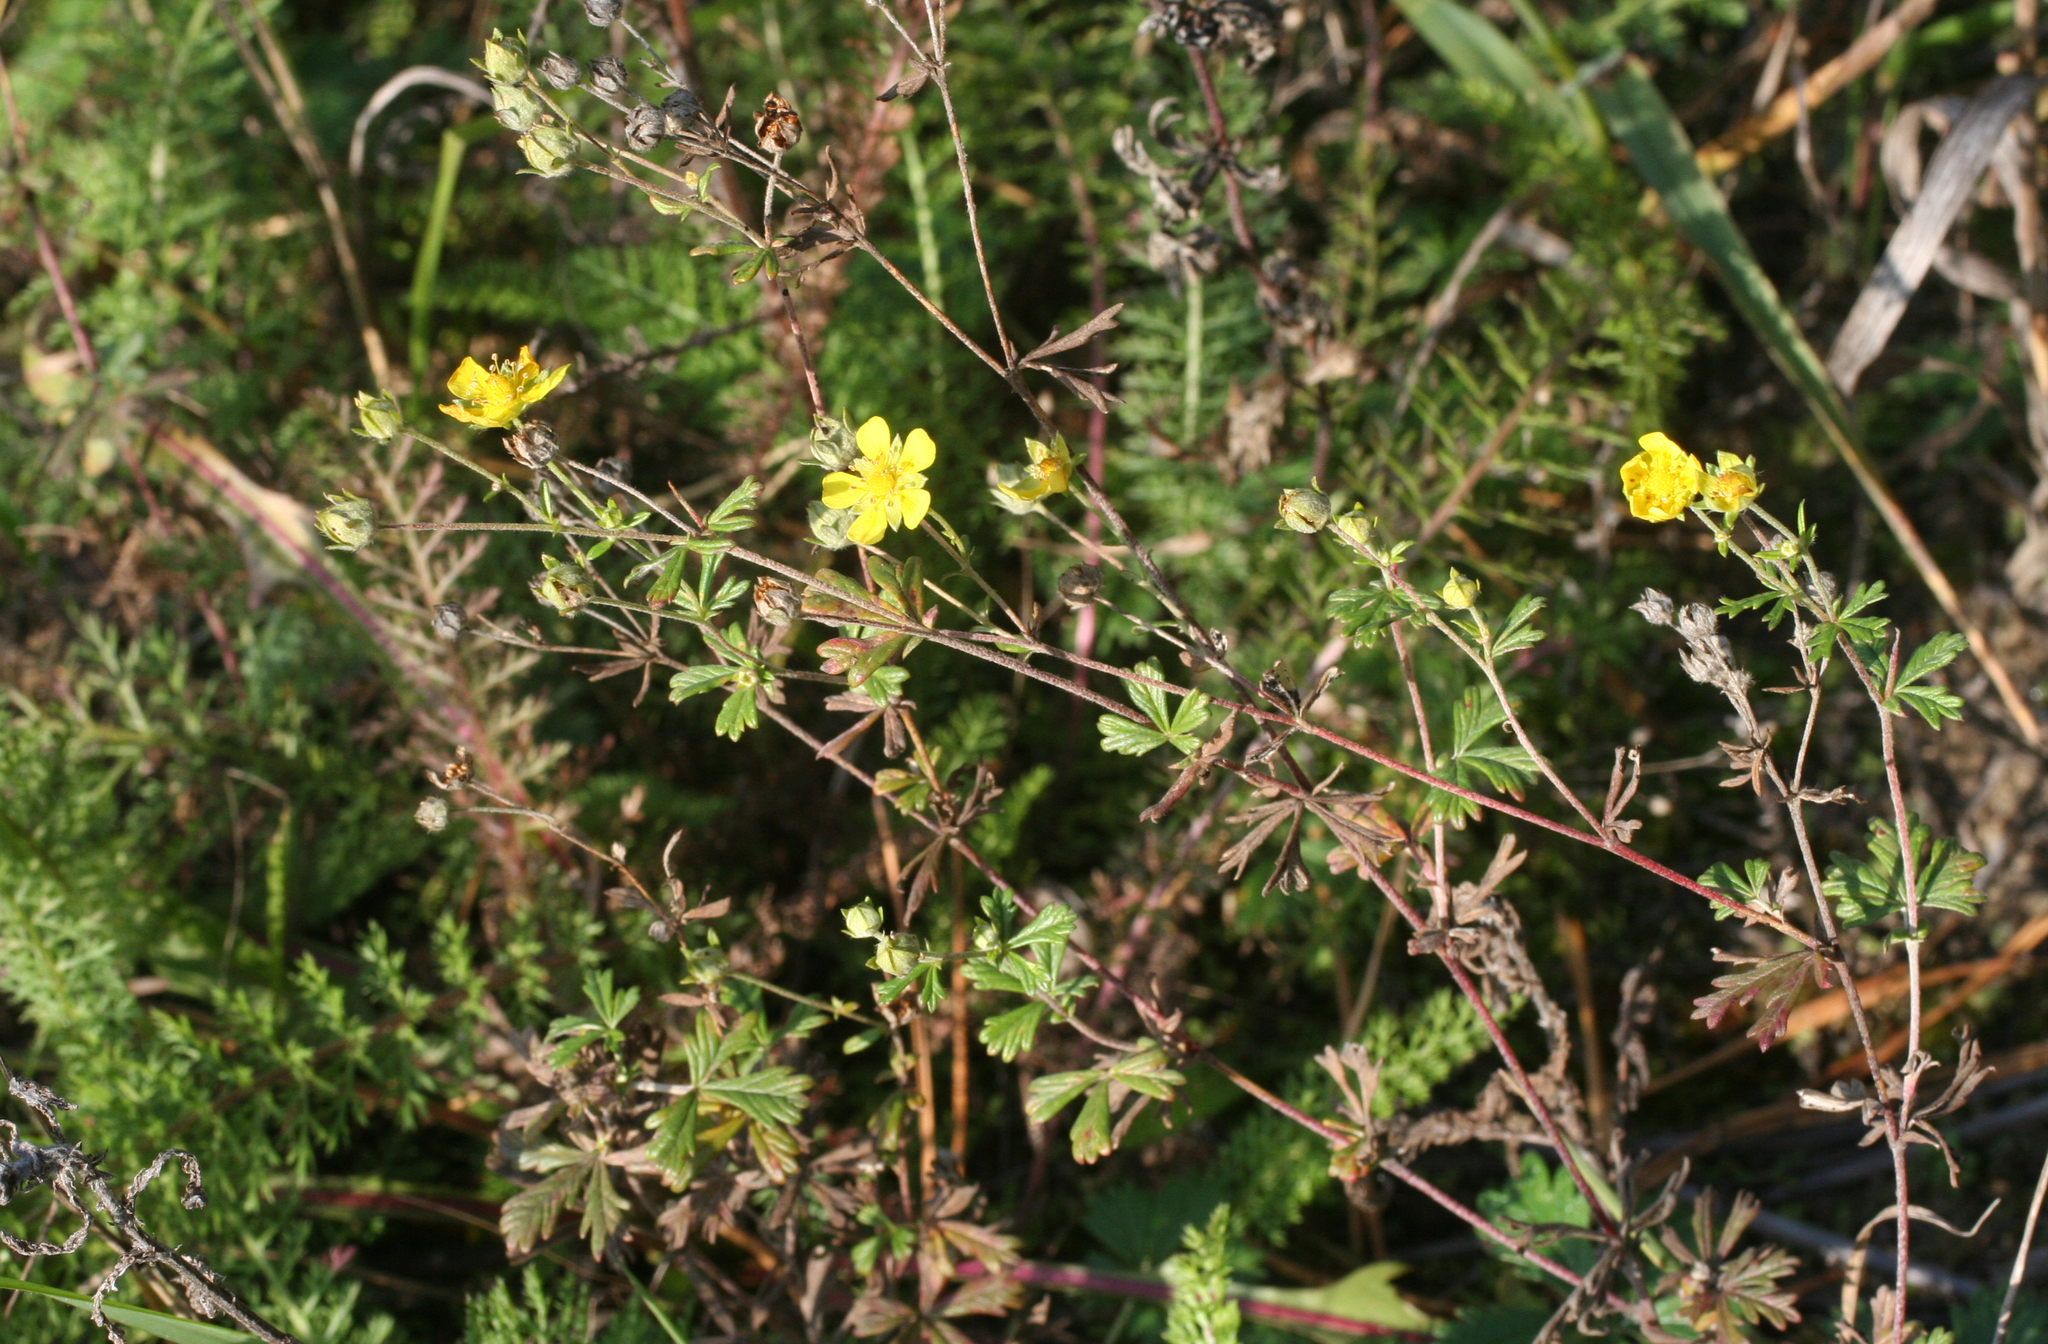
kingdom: Plantae
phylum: Tracheophyta
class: Magnoliopsida
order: Rosales
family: Rosaceae
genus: Potentilla
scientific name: Potentilla argentea
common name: Hoary cinquefoil
